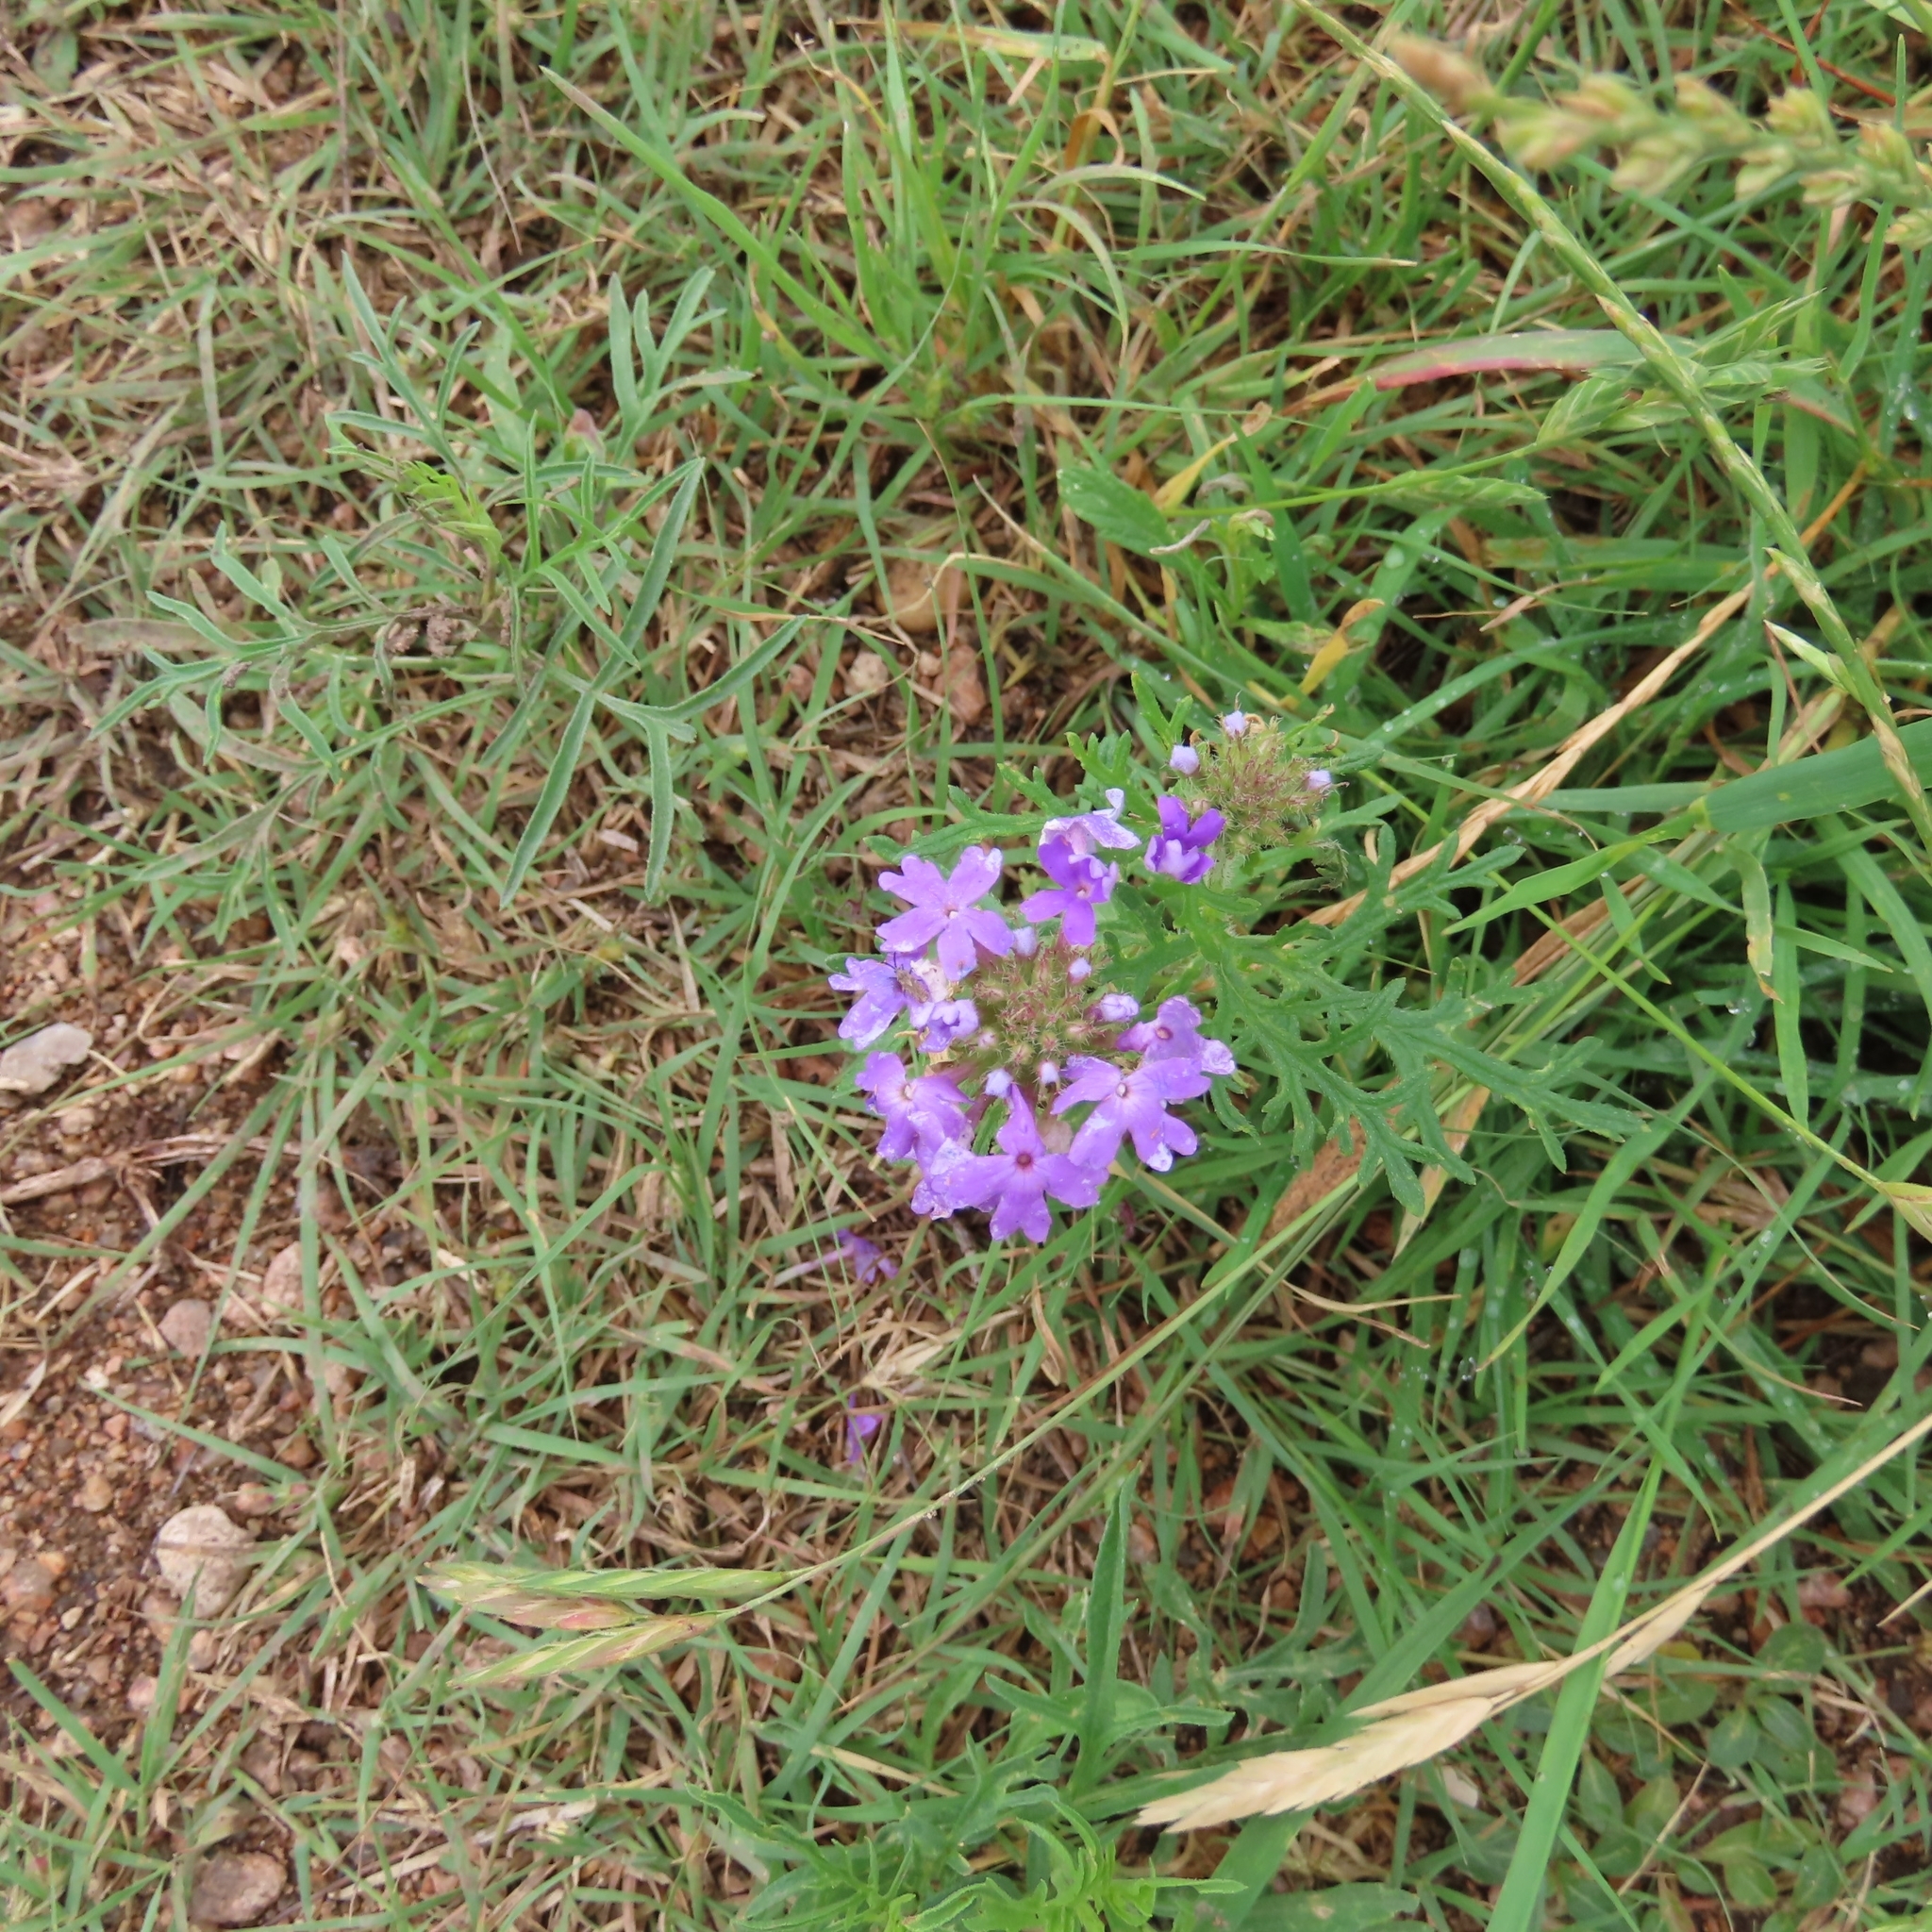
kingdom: Plantae
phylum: Tracheophyta
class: Magnoliopsida
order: Lamiales
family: Verbenaceae
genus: Verbena
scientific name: Verbena bipinnatifida
